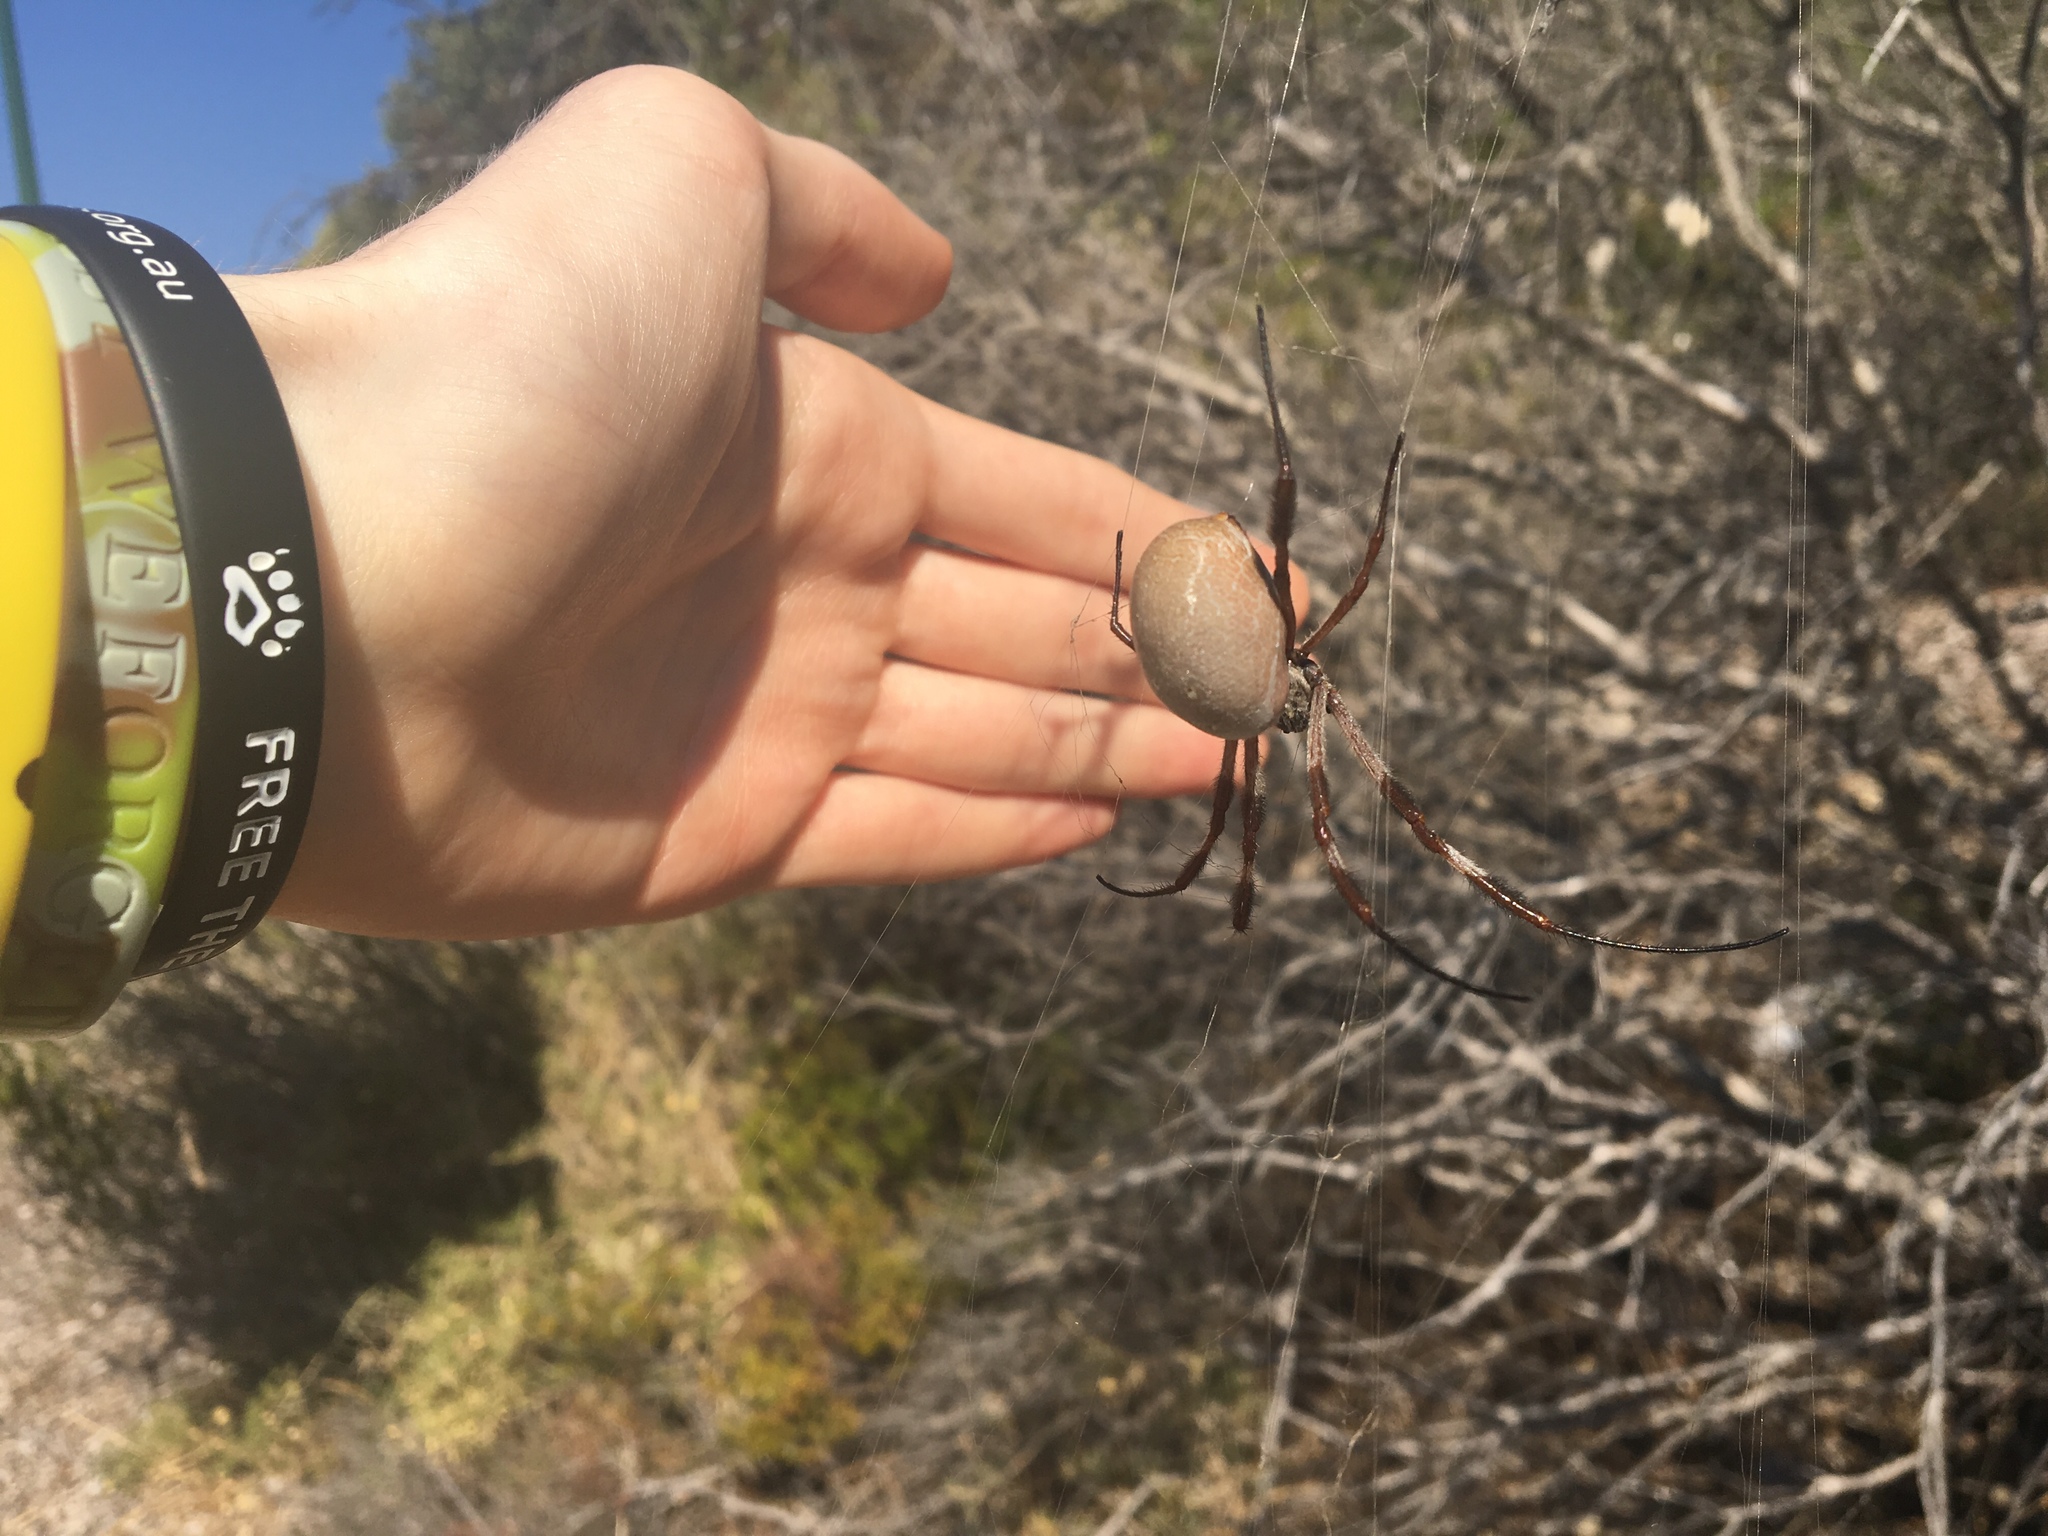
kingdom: Animalia
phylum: Arthropoda
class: Arachnida
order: Araneae
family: Araneidae
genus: Trichonephila
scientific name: Trichonephila edulis
